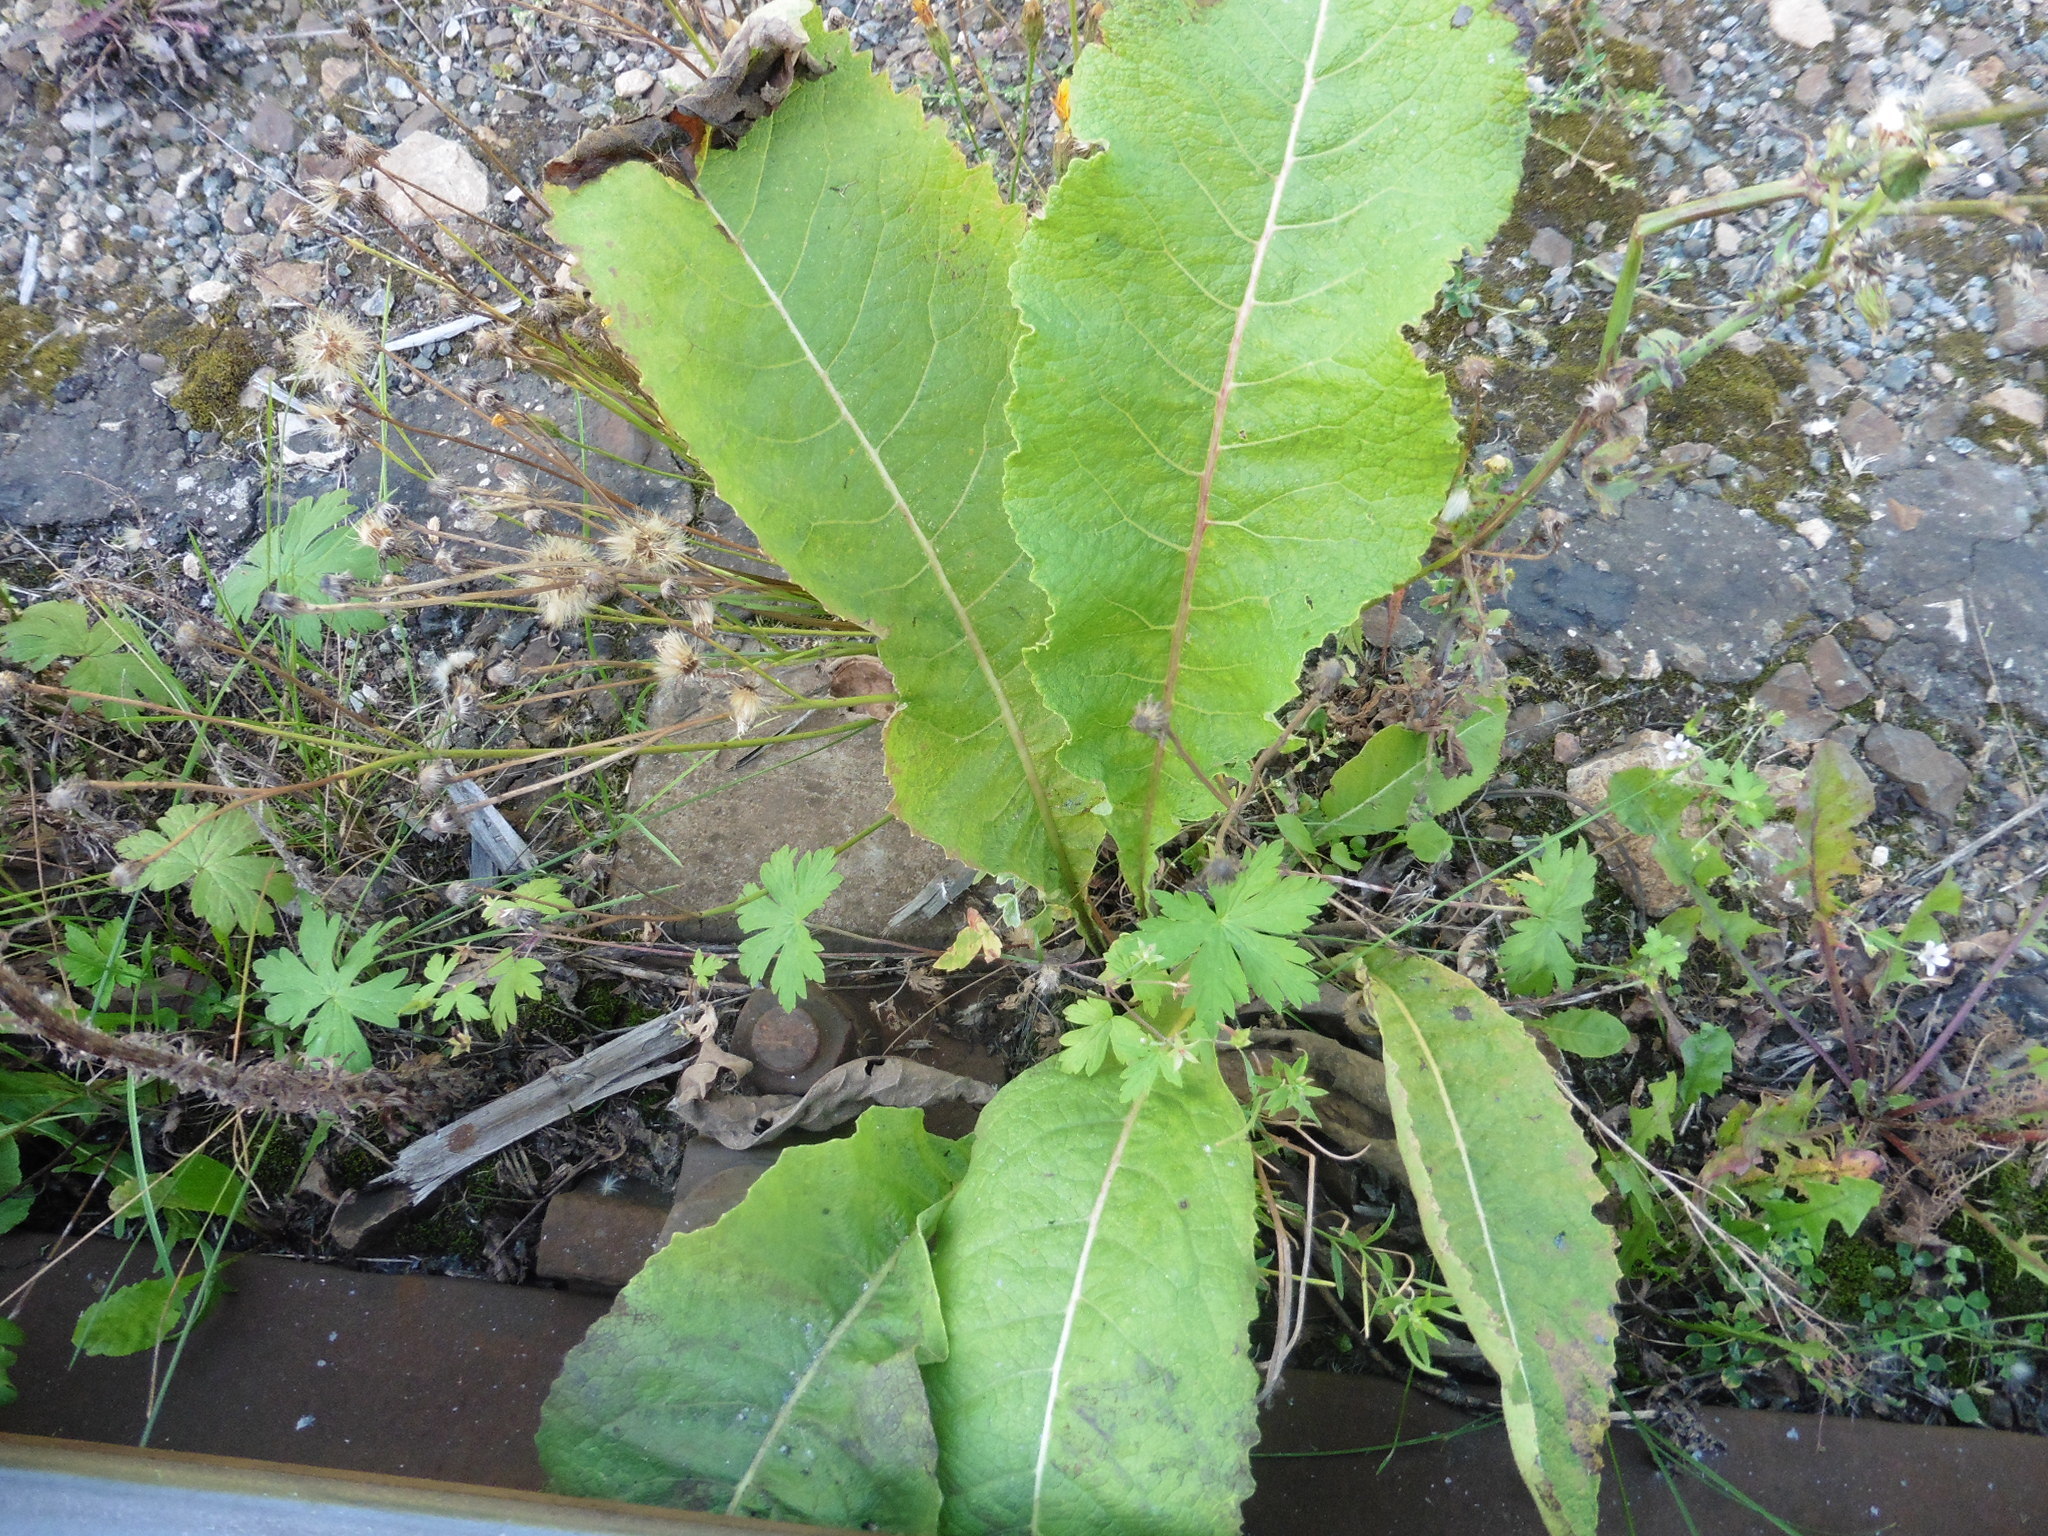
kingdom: Plantae
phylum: Tracheophyta
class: Magnoliopsida
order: Asterales
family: Asteraceae
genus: Inula
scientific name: Inula helenium
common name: Elecampane
